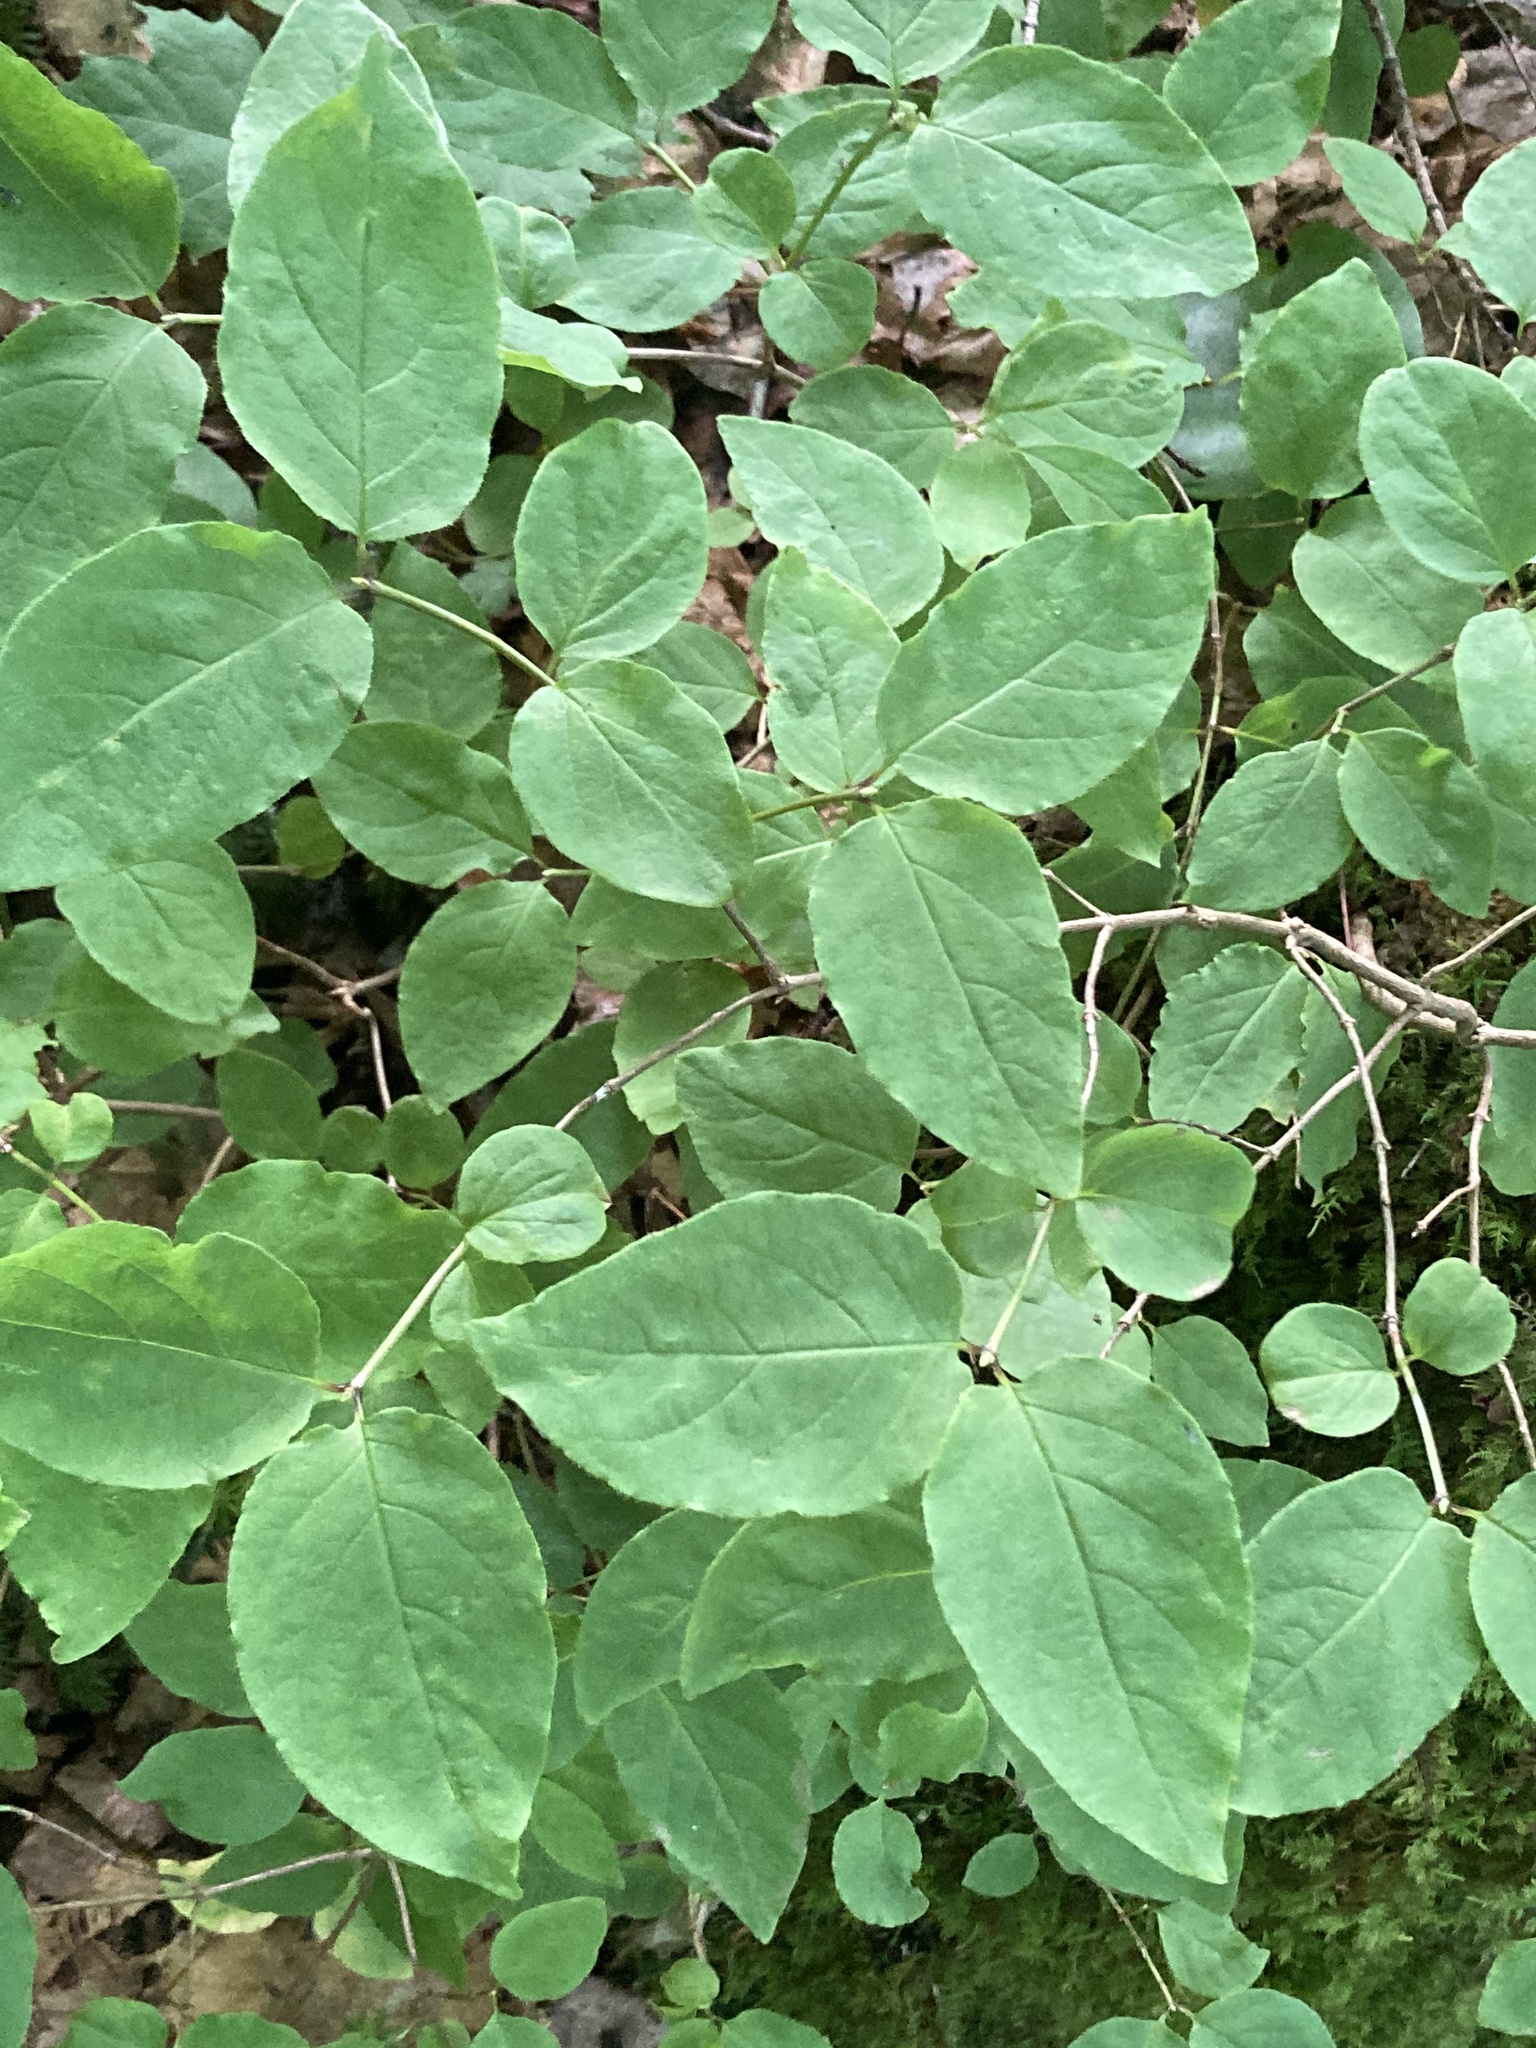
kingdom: Plantae
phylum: Tracheophyta
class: Magnoliopsida
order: Dipsacales
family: Caprifoliaceae
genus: Lonicera
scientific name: Lonicera canadensis
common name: American fly-honeysuckle
